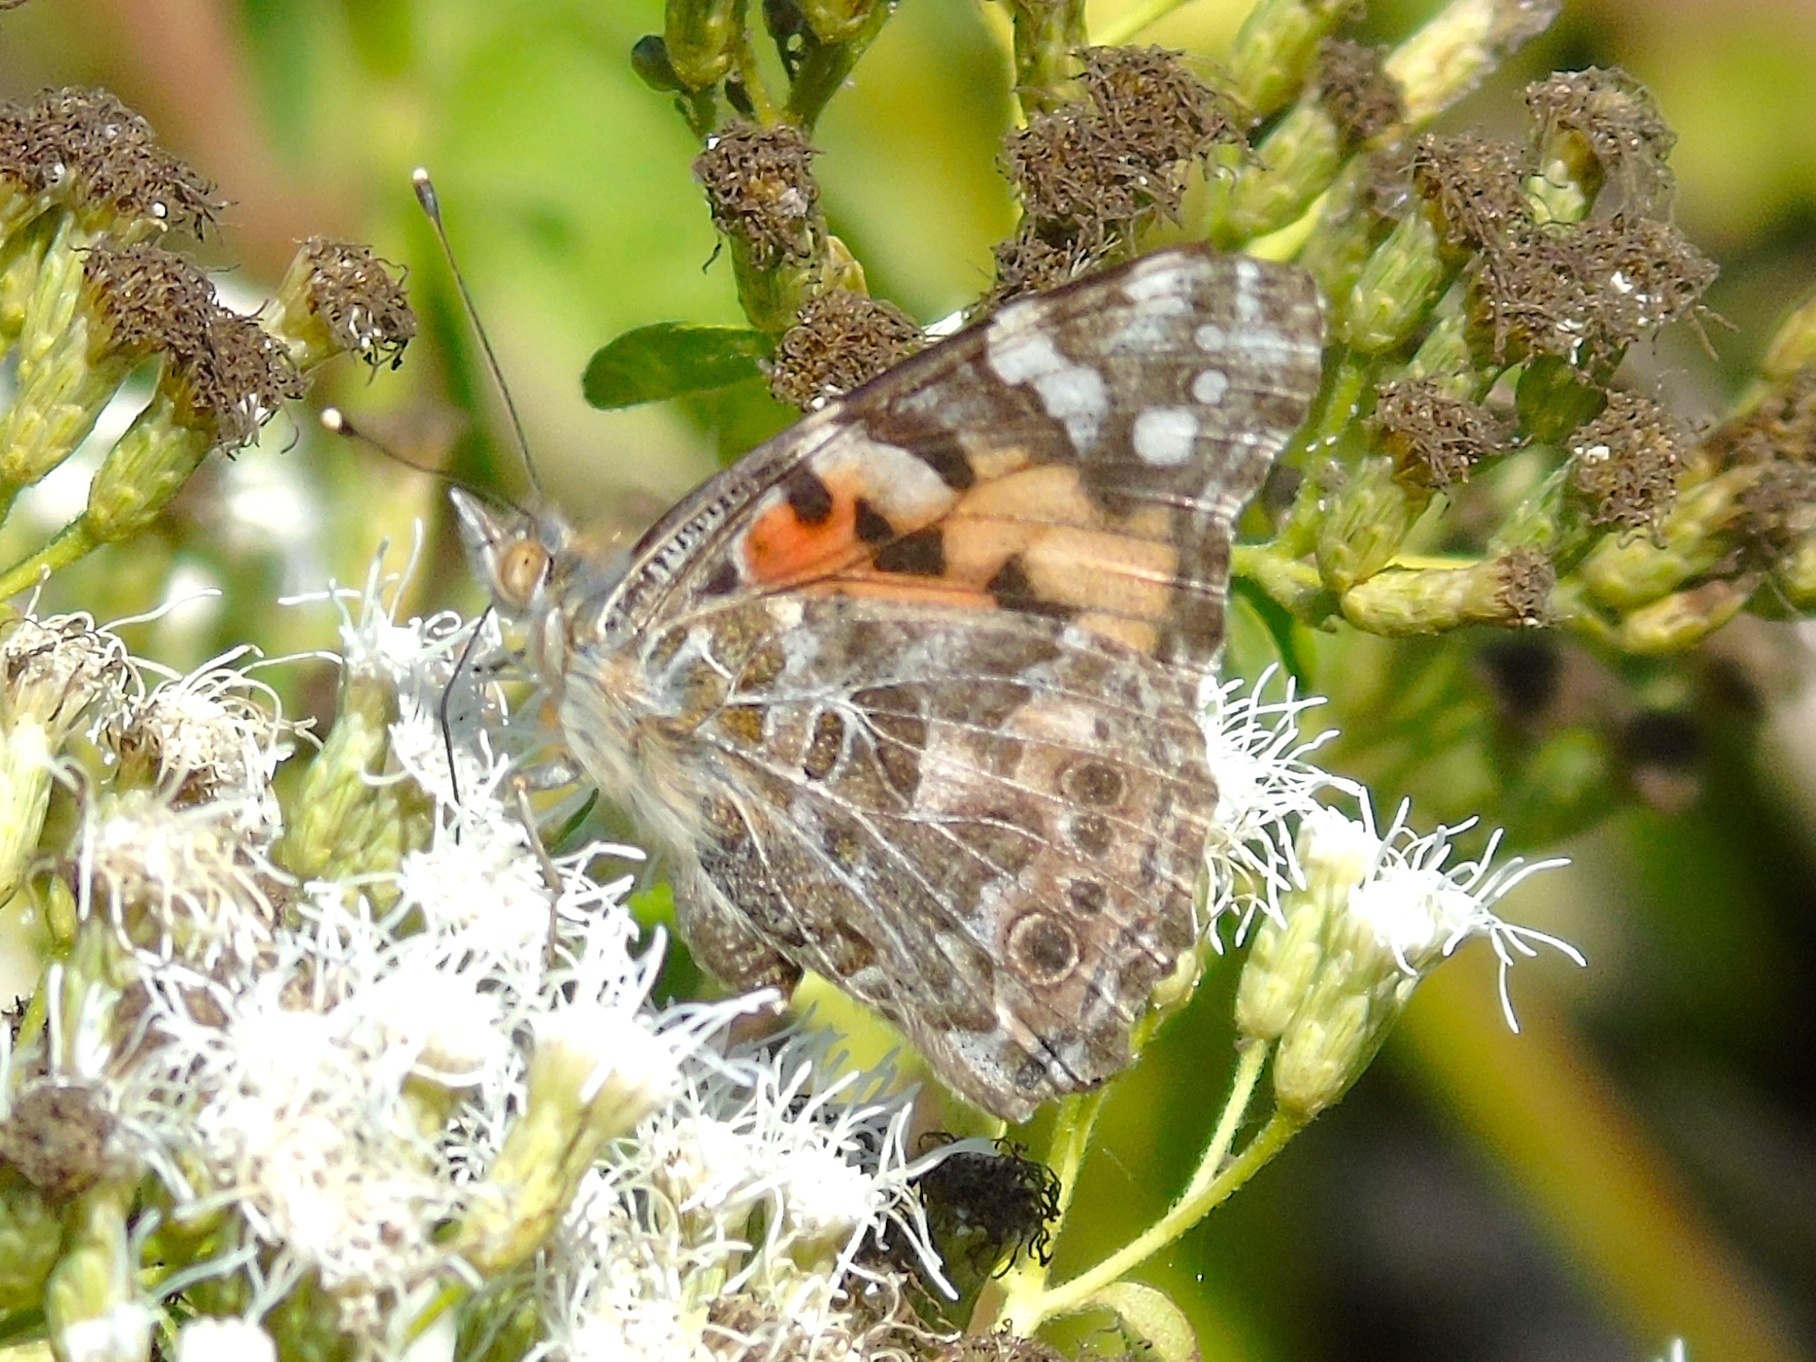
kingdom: Animalia
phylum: Arthropoda
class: Insecta
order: Lepidoptera
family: Nymphalidae
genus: Vanessa
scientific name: Vanessa cardui
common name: Painted lady
